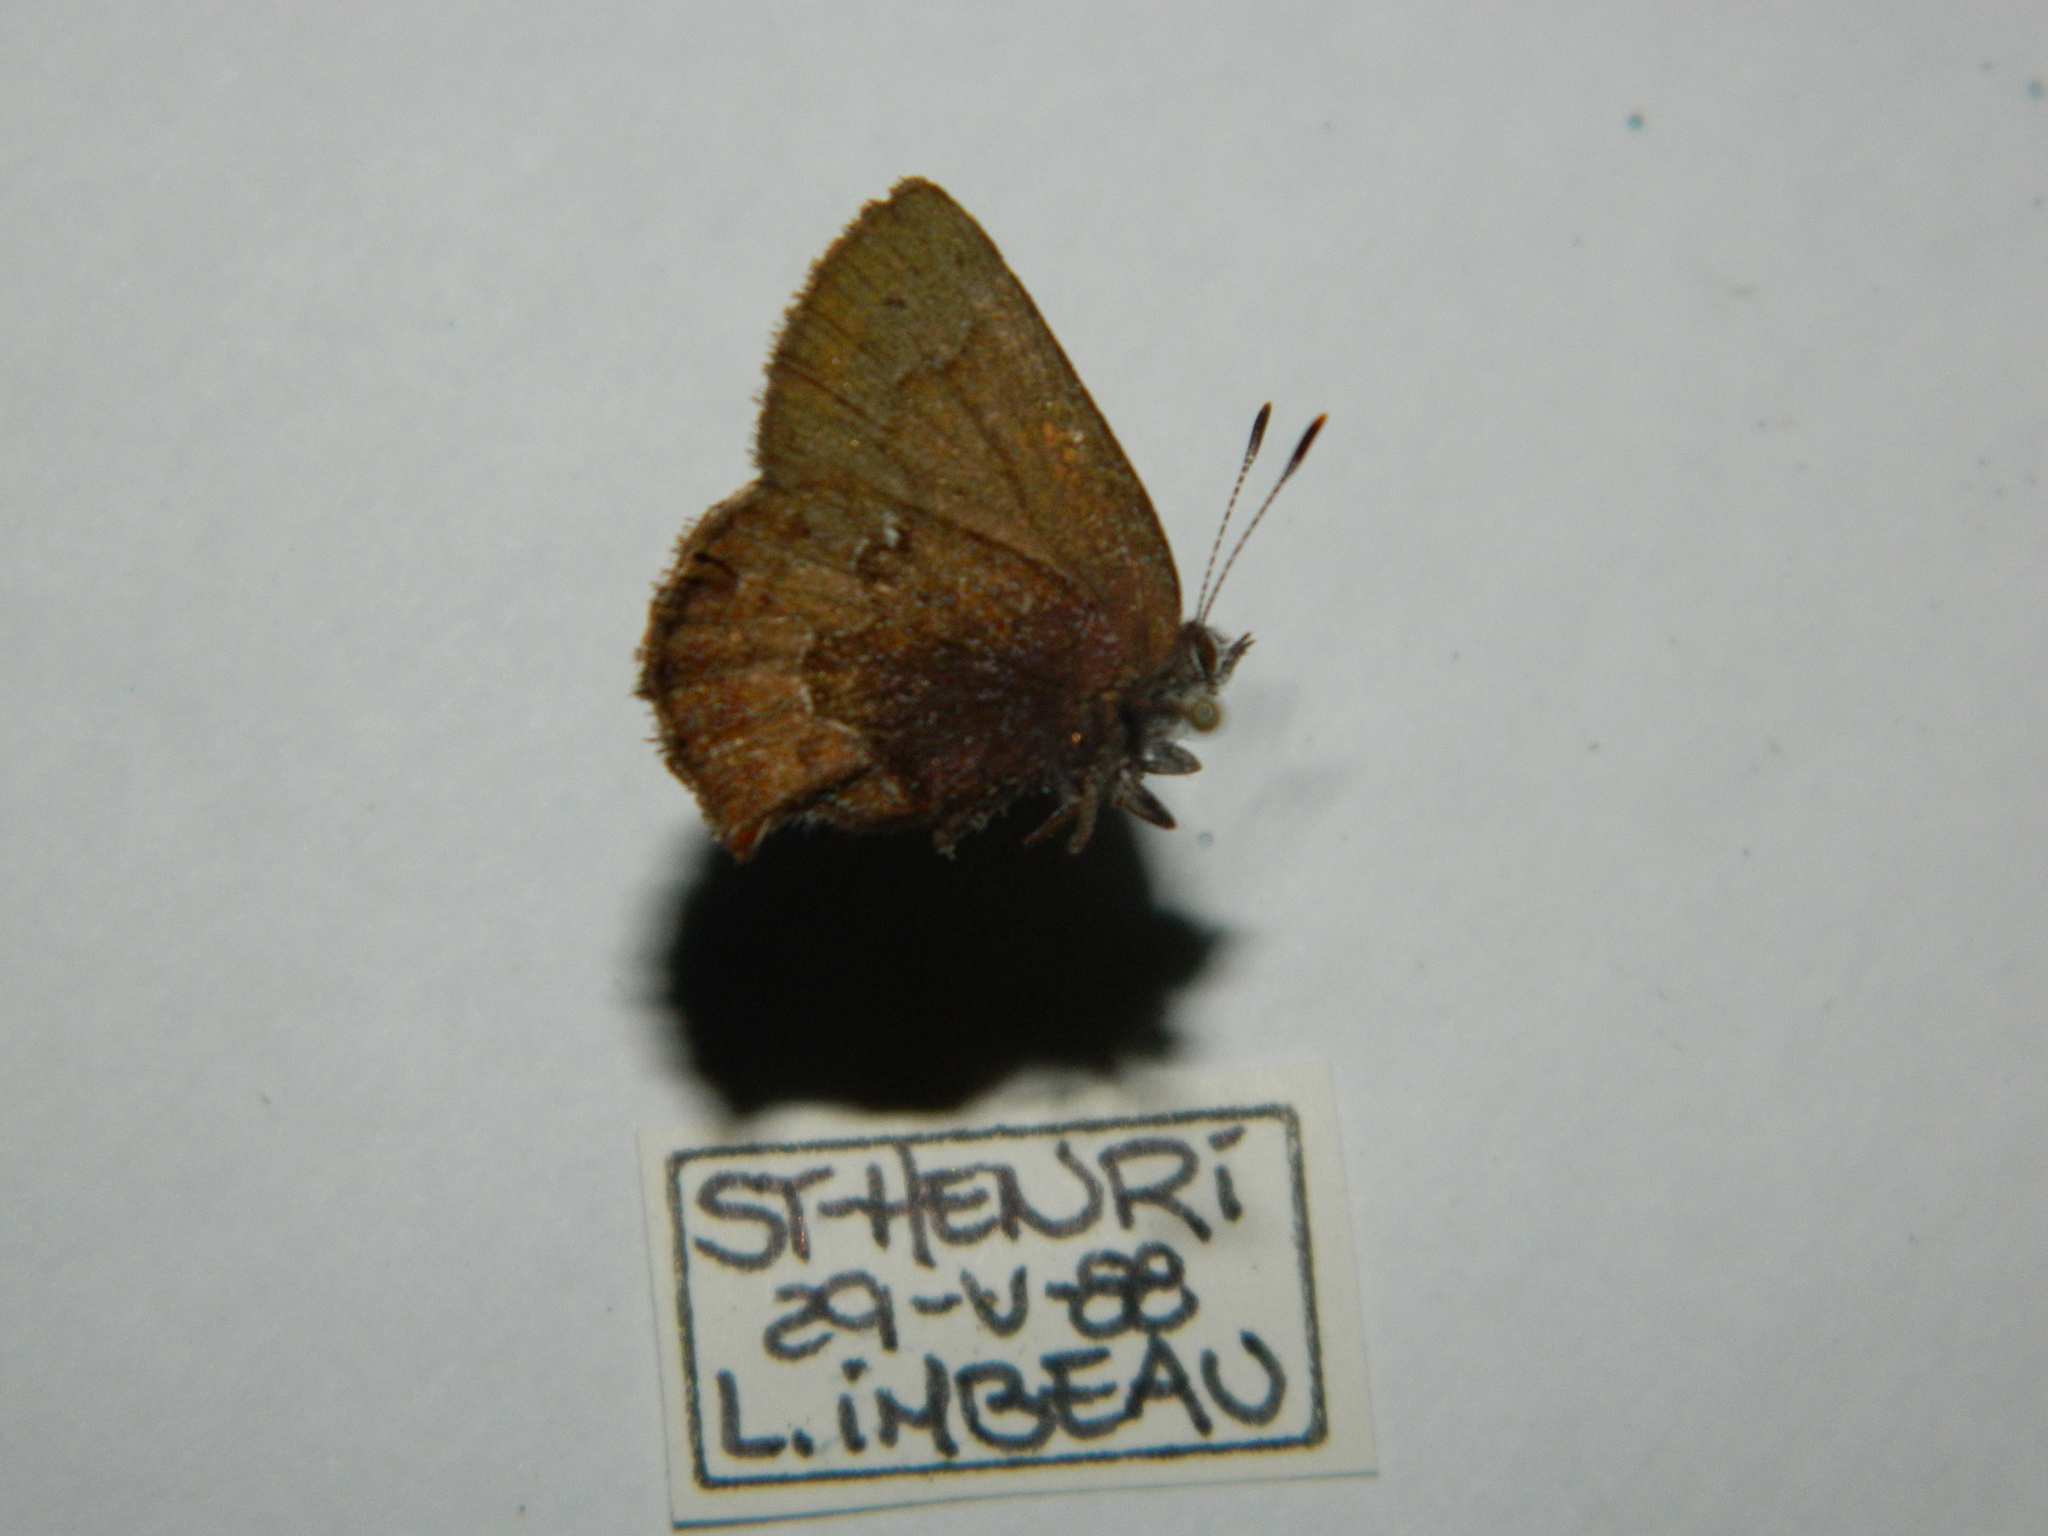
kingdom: Animalia
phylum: Arthropoda
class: Insecta
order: Lepidoptera
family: Lycaenidae
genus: Incisalia
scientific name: Incisalia irioides
